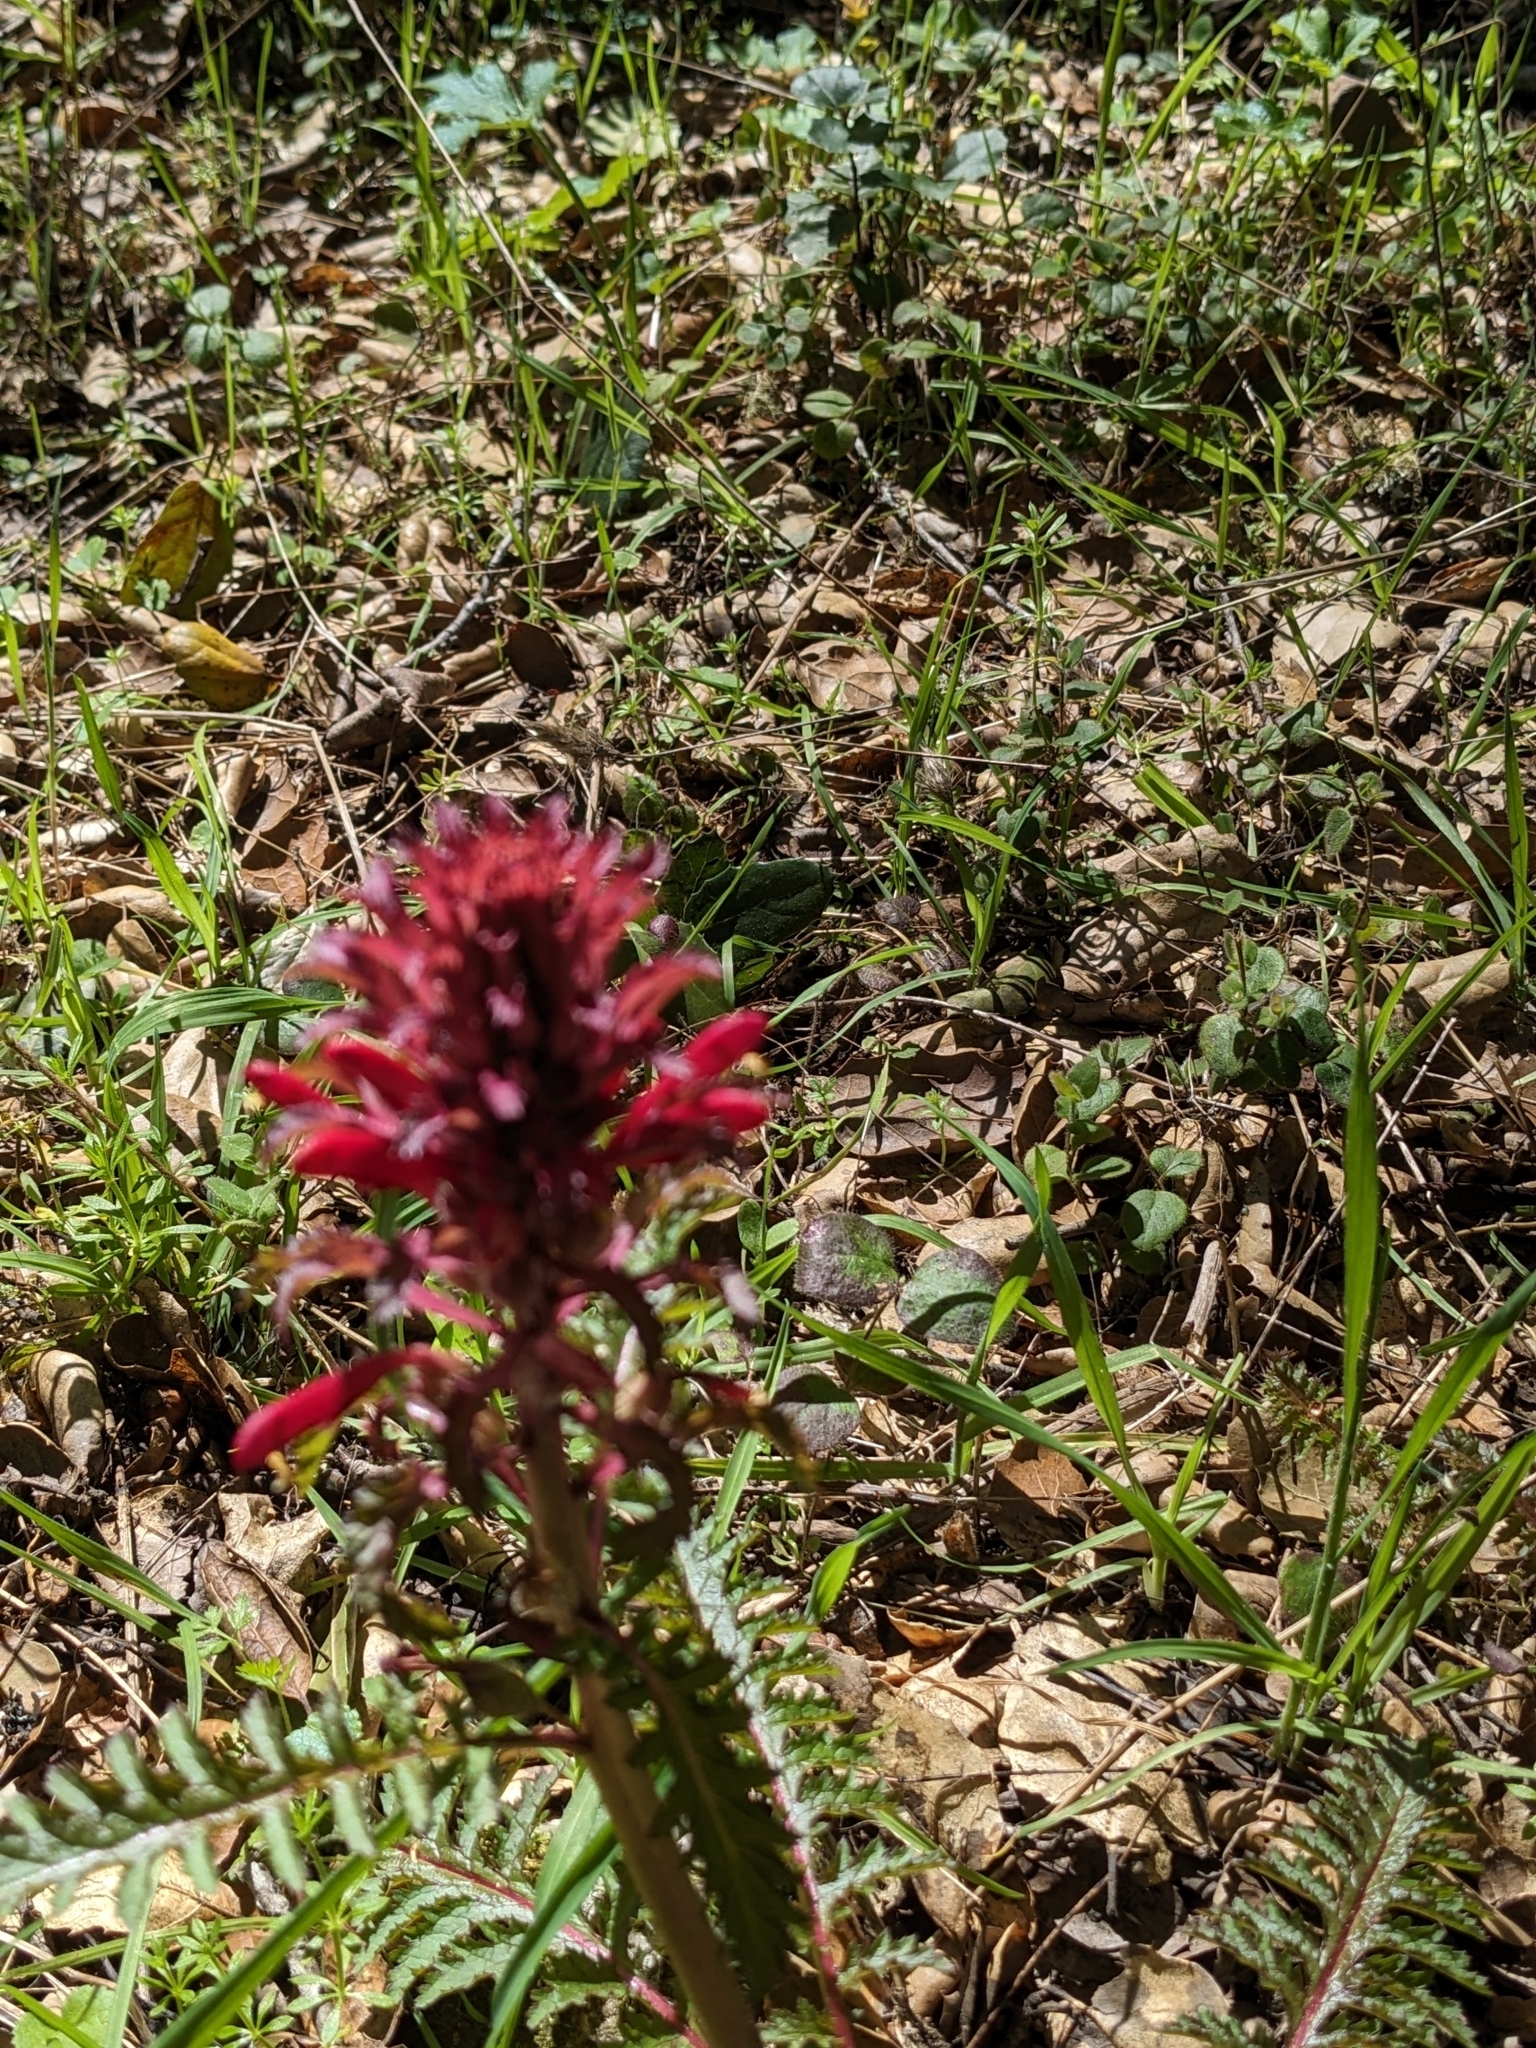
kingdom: Plantae
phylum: Tracheophyta
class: Magnoliopsida
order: Lamiales
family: Orobanchaceae
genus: Pedicularis
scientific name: Pedicularis densiflora
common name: Indian warrior
